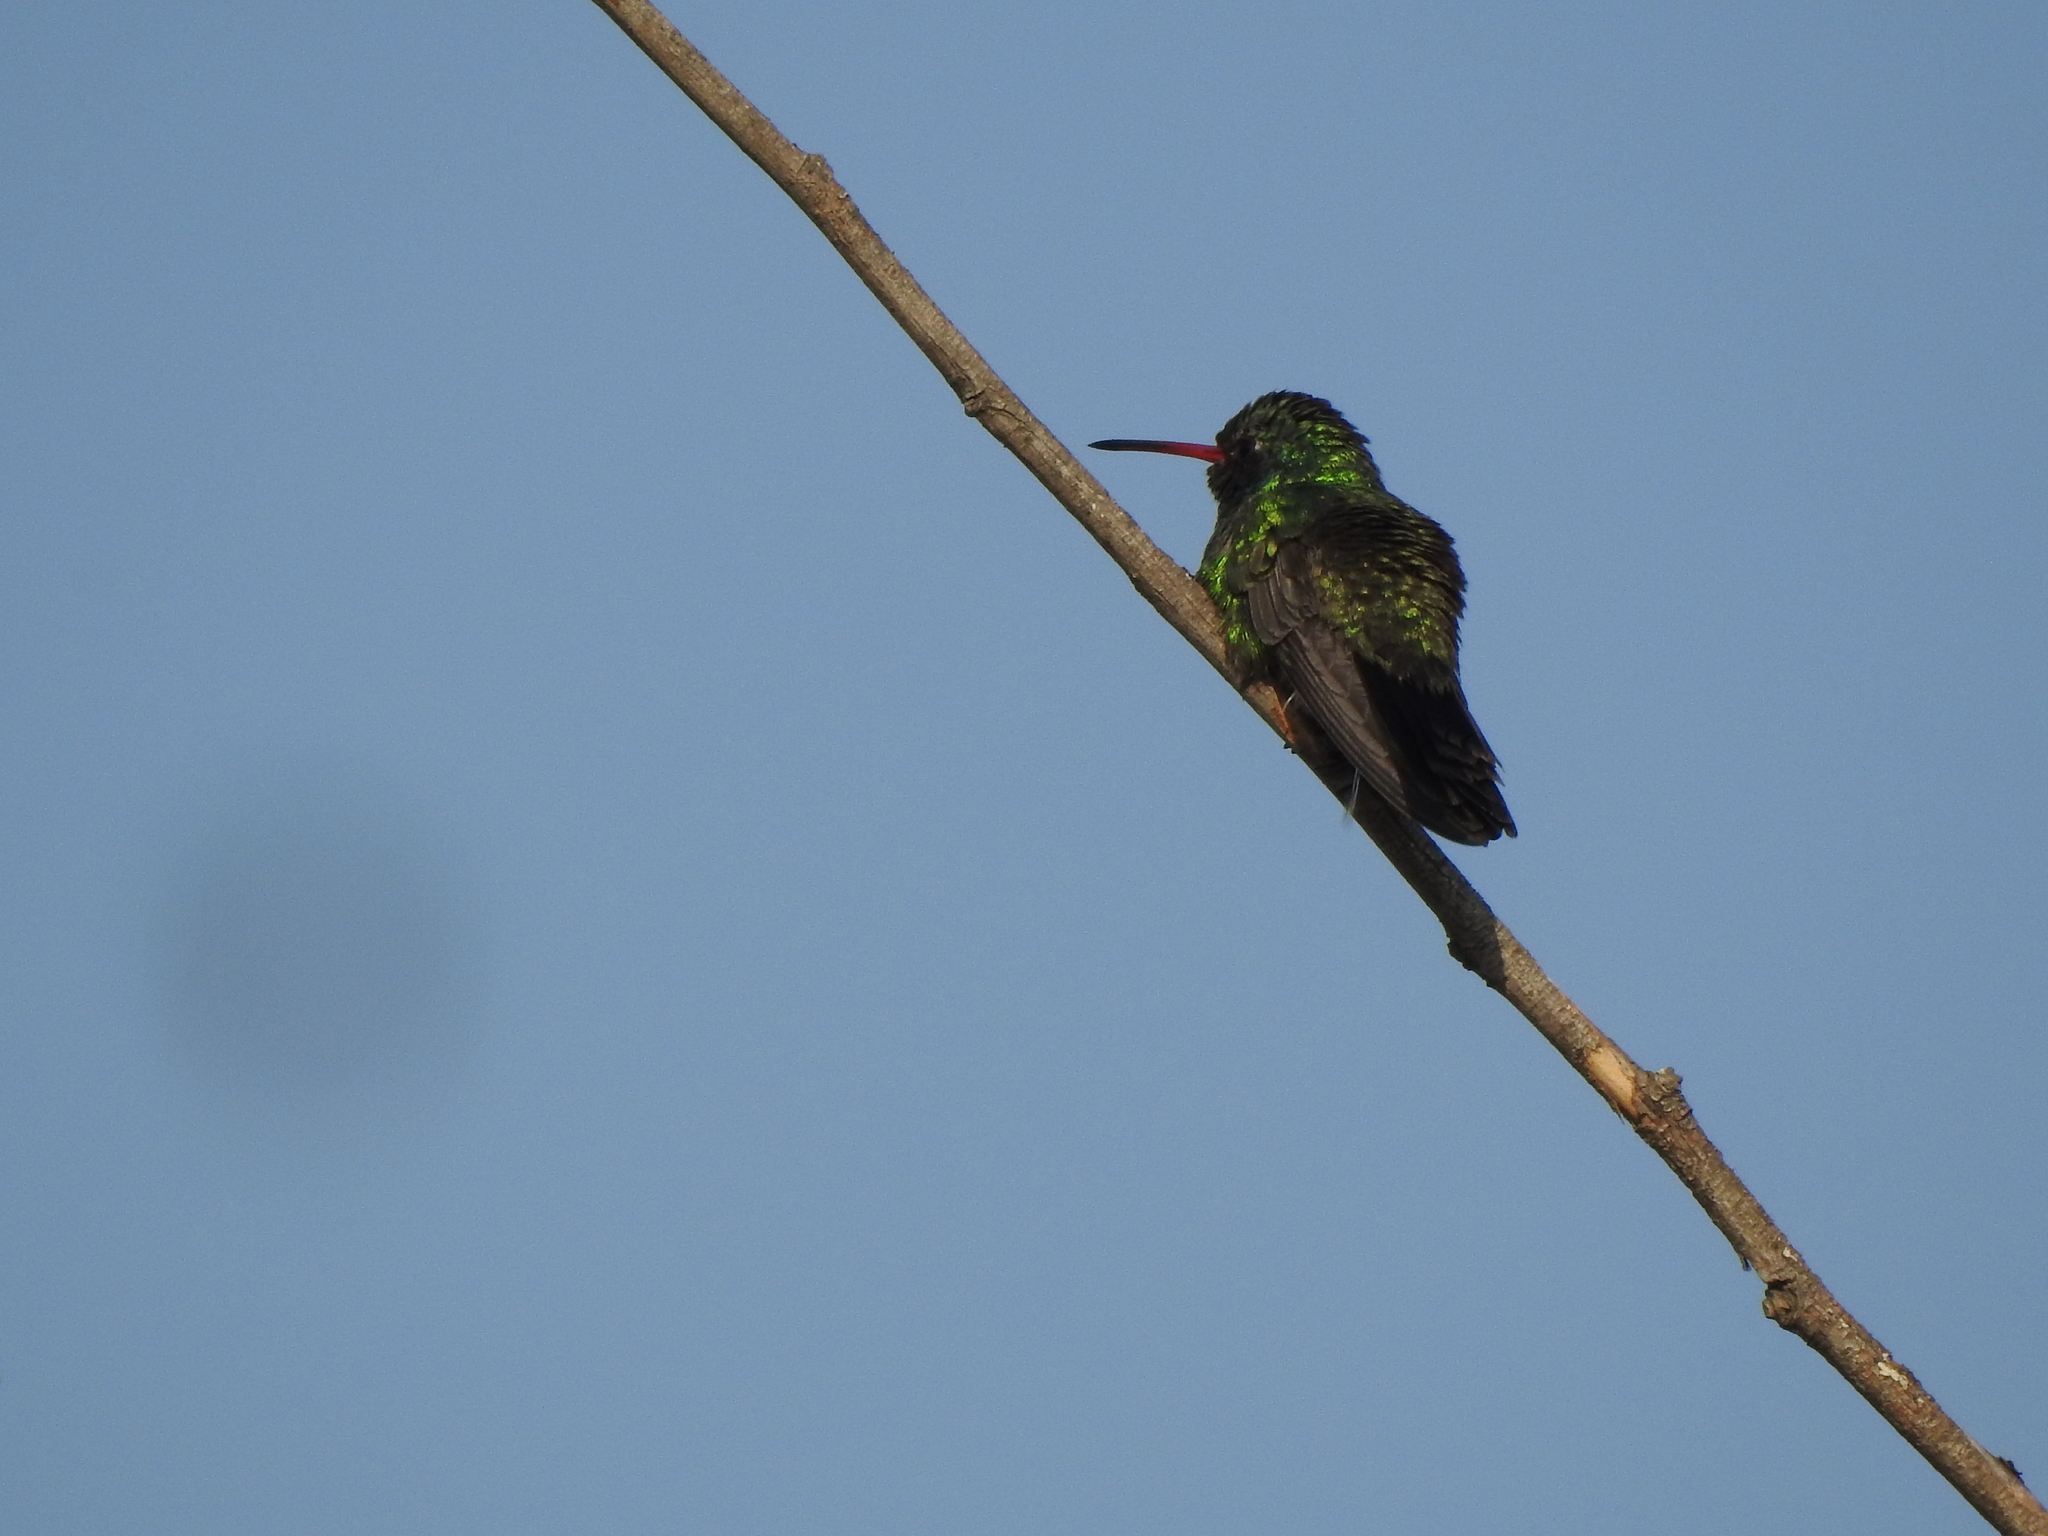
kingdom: Animalia
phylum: Chordata
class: Aves
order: Apodiformes
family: Trochilidae
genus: Cynanthus
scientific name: Cynanthus latirostris
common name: Broad-billed hummingbird
